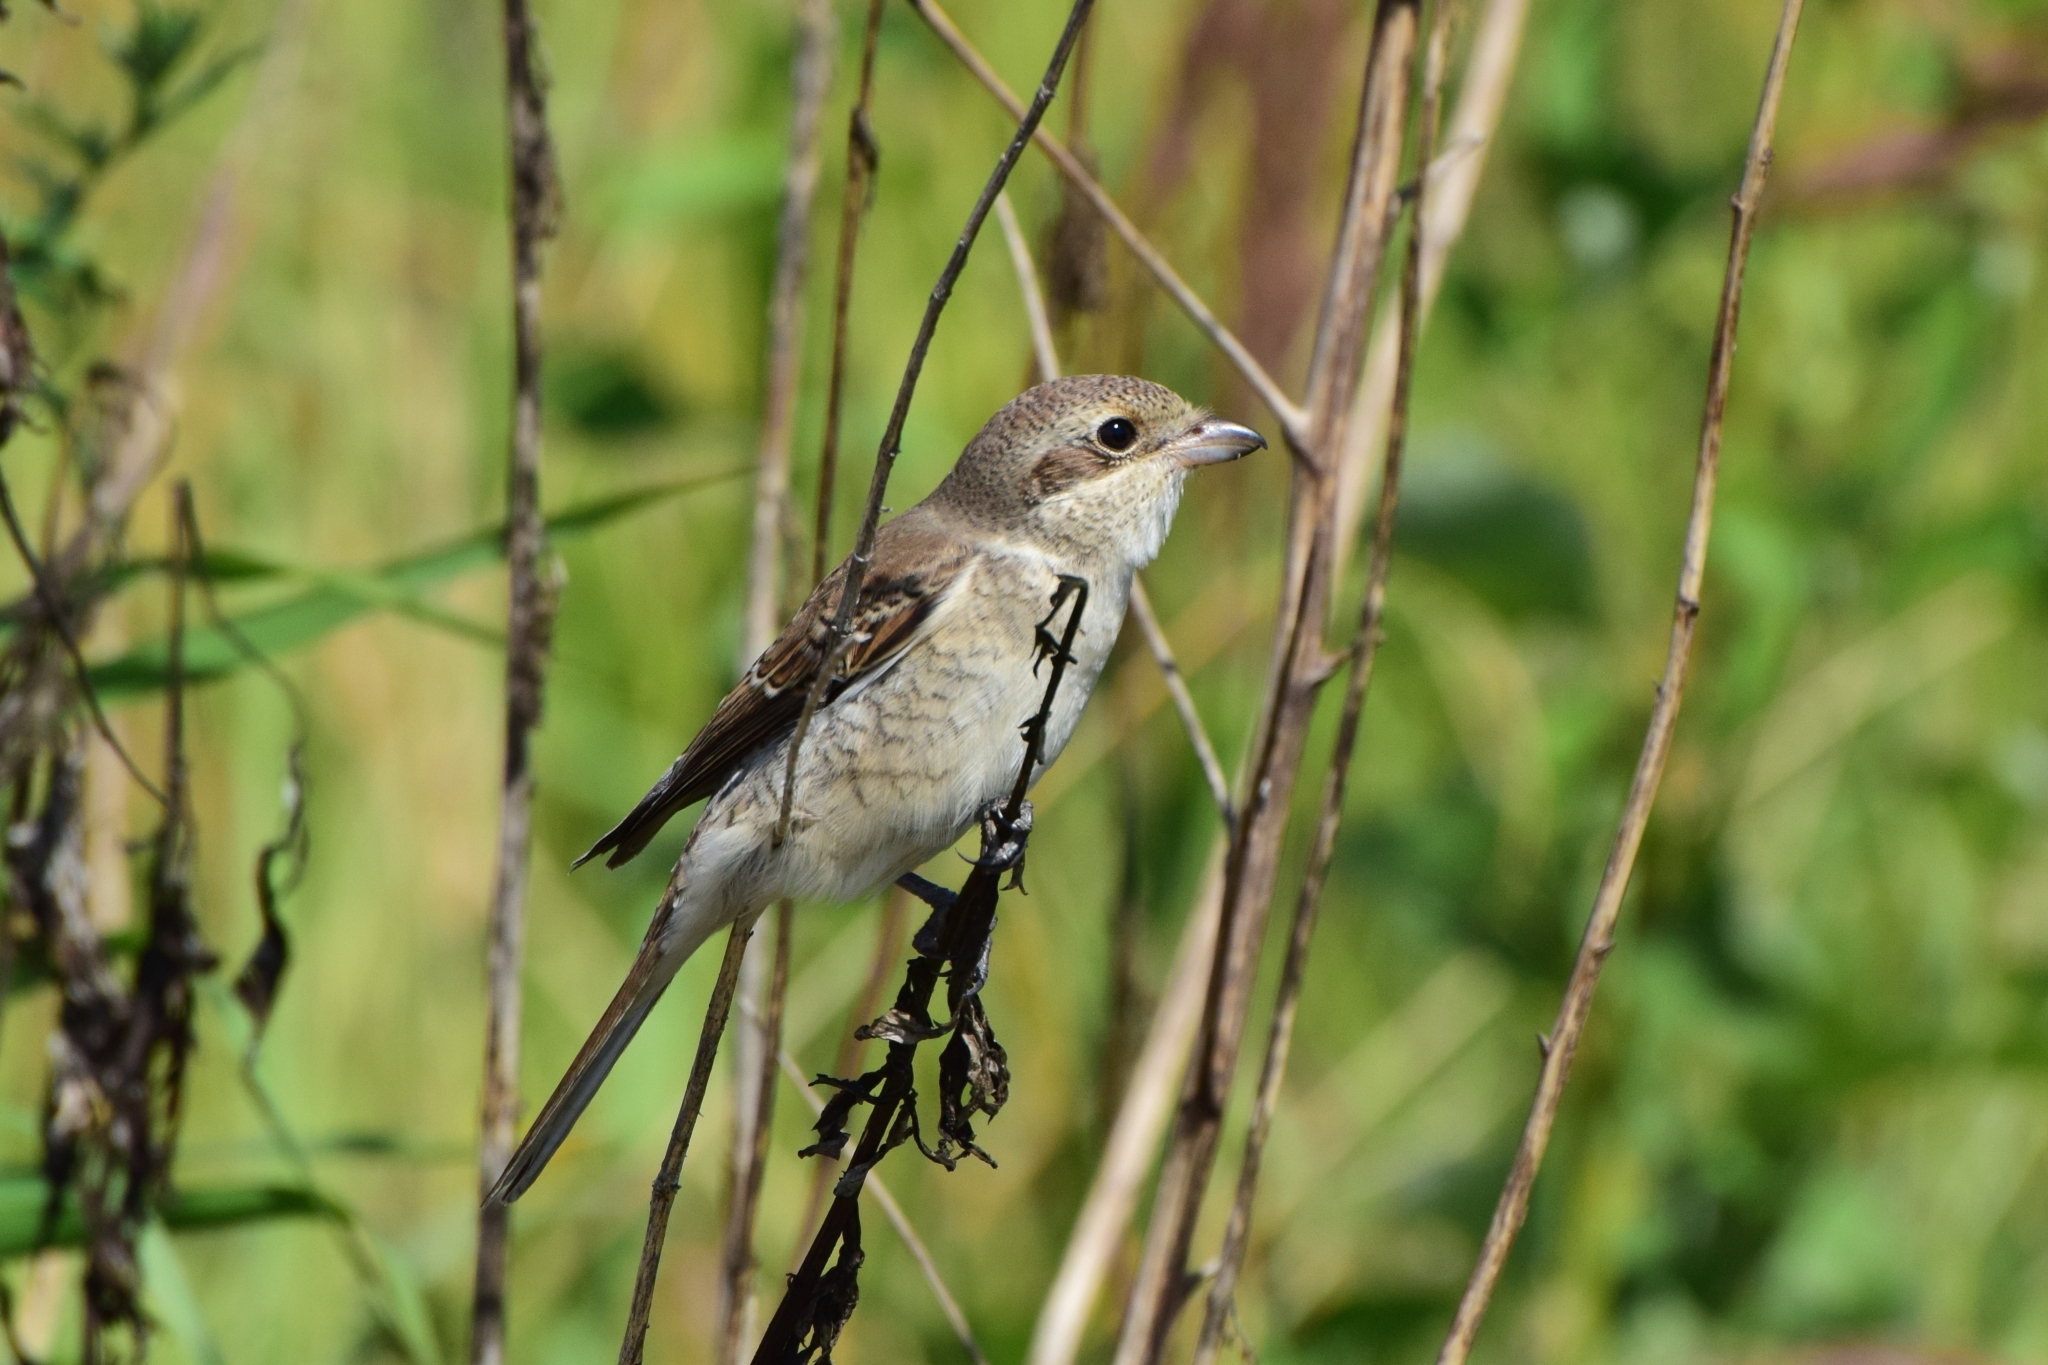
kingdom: Animalia
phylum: Chordata
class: Aves
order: Passeriformes
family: Laniidae
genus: Lanius
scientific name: Lanius collurio
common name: Red-backed shrike
